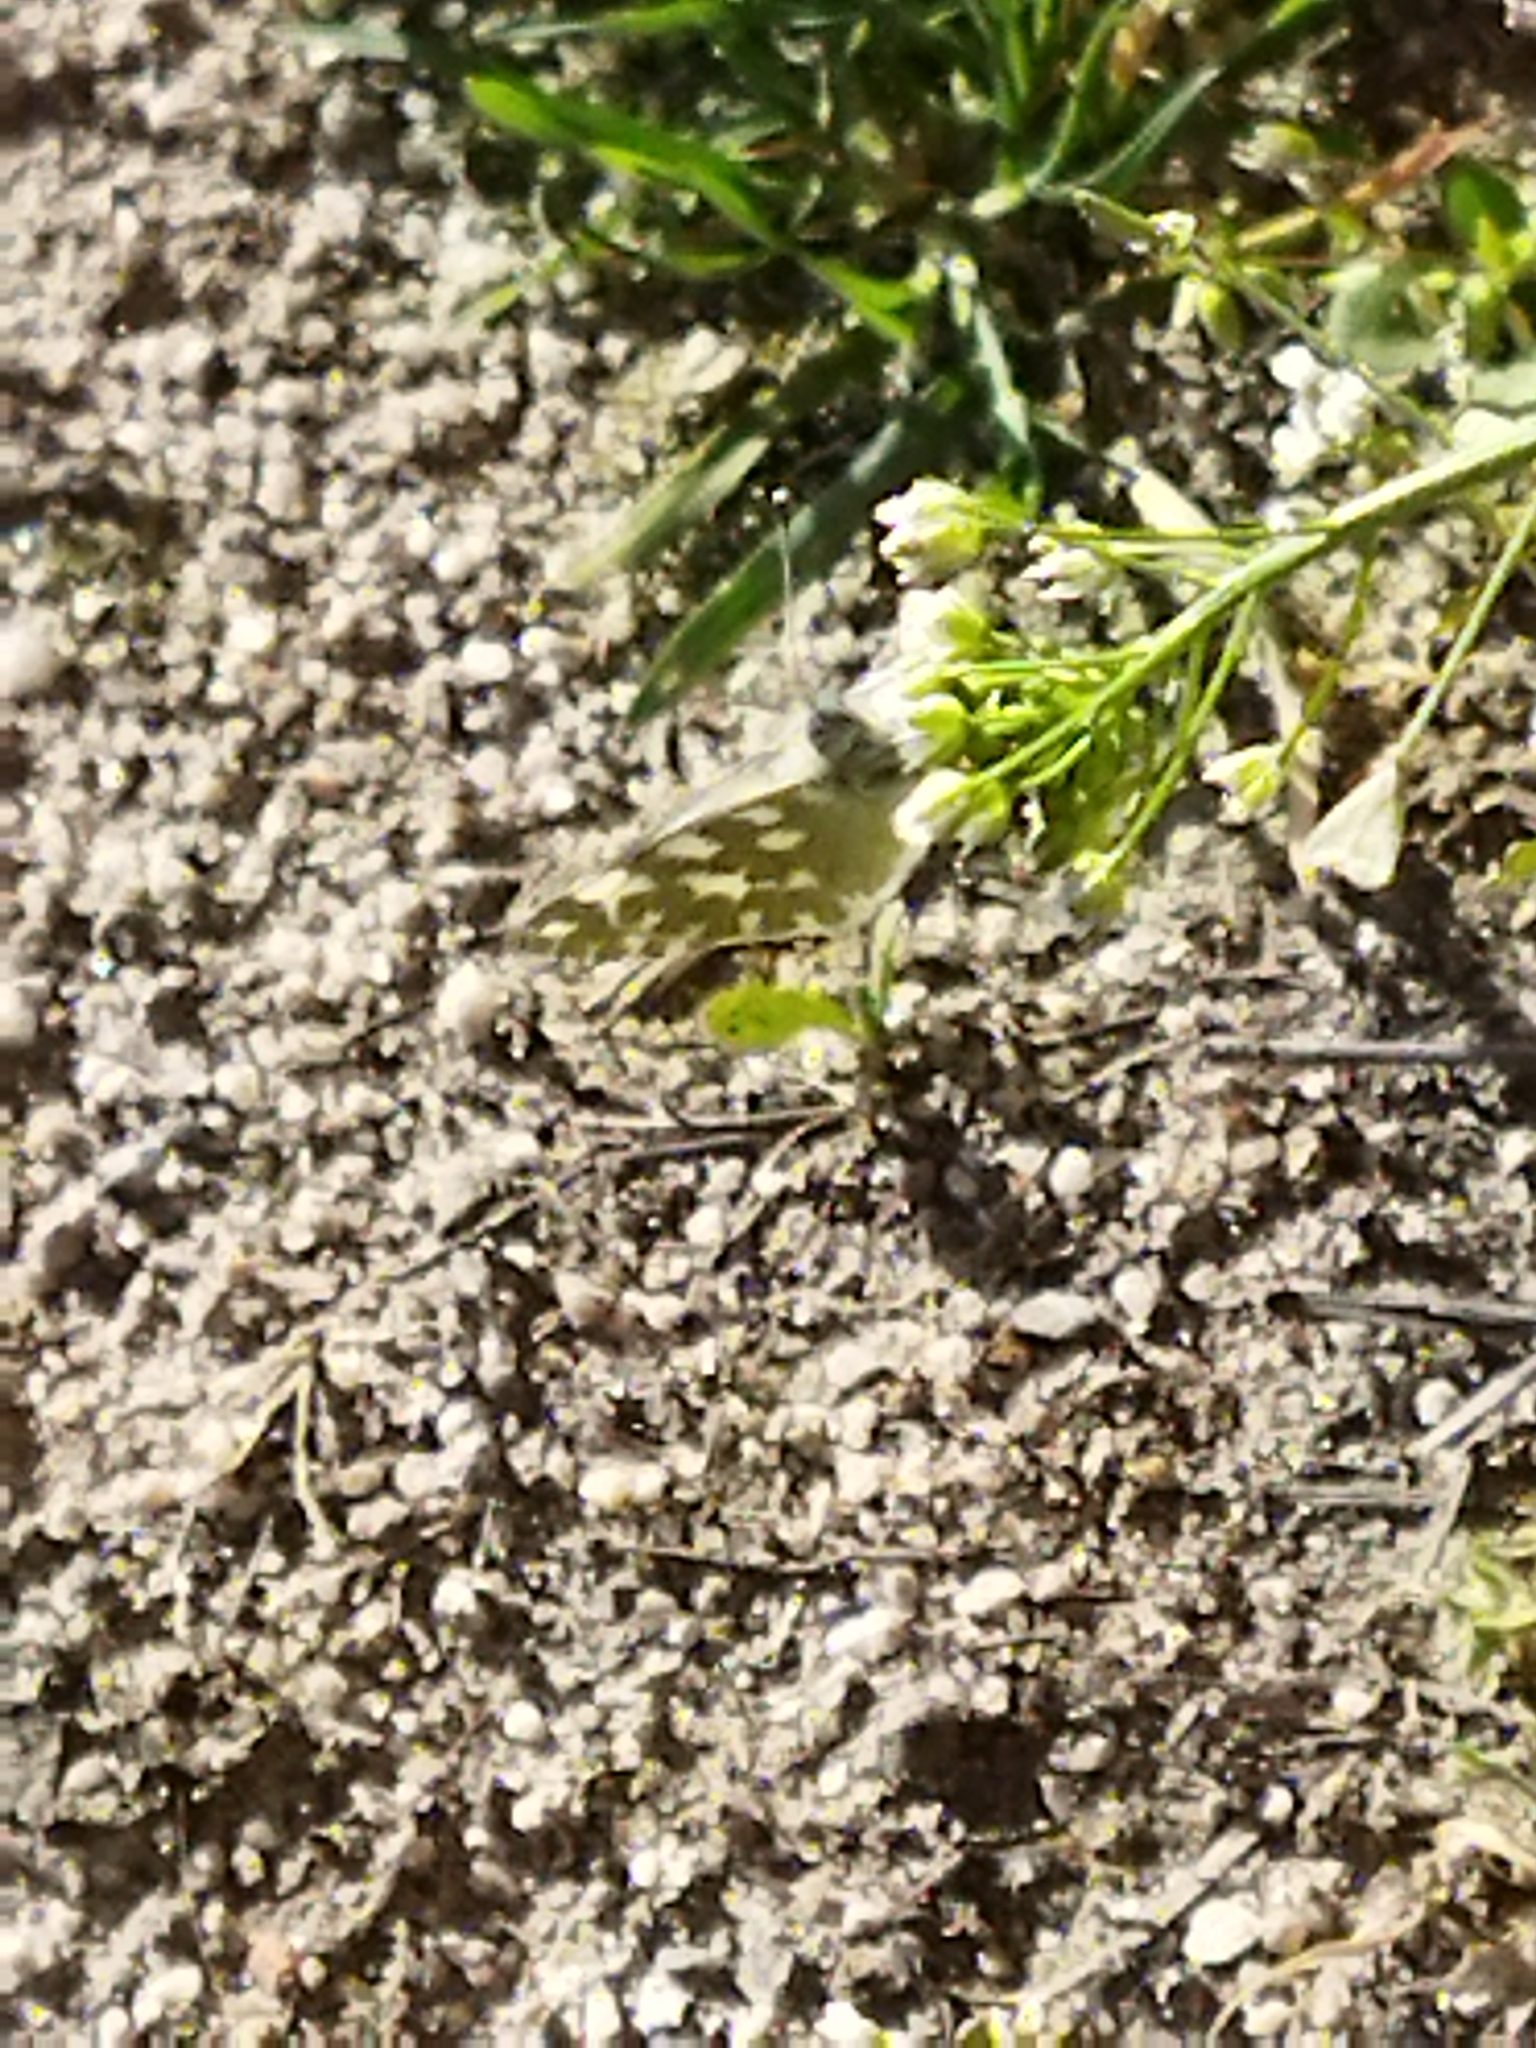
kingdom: Animalia
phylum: Arthropoda
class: Insecta
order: Lepidoptera
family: Pieridae
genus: Pontia
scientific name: Pontia edusa
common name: Eastern bath white
